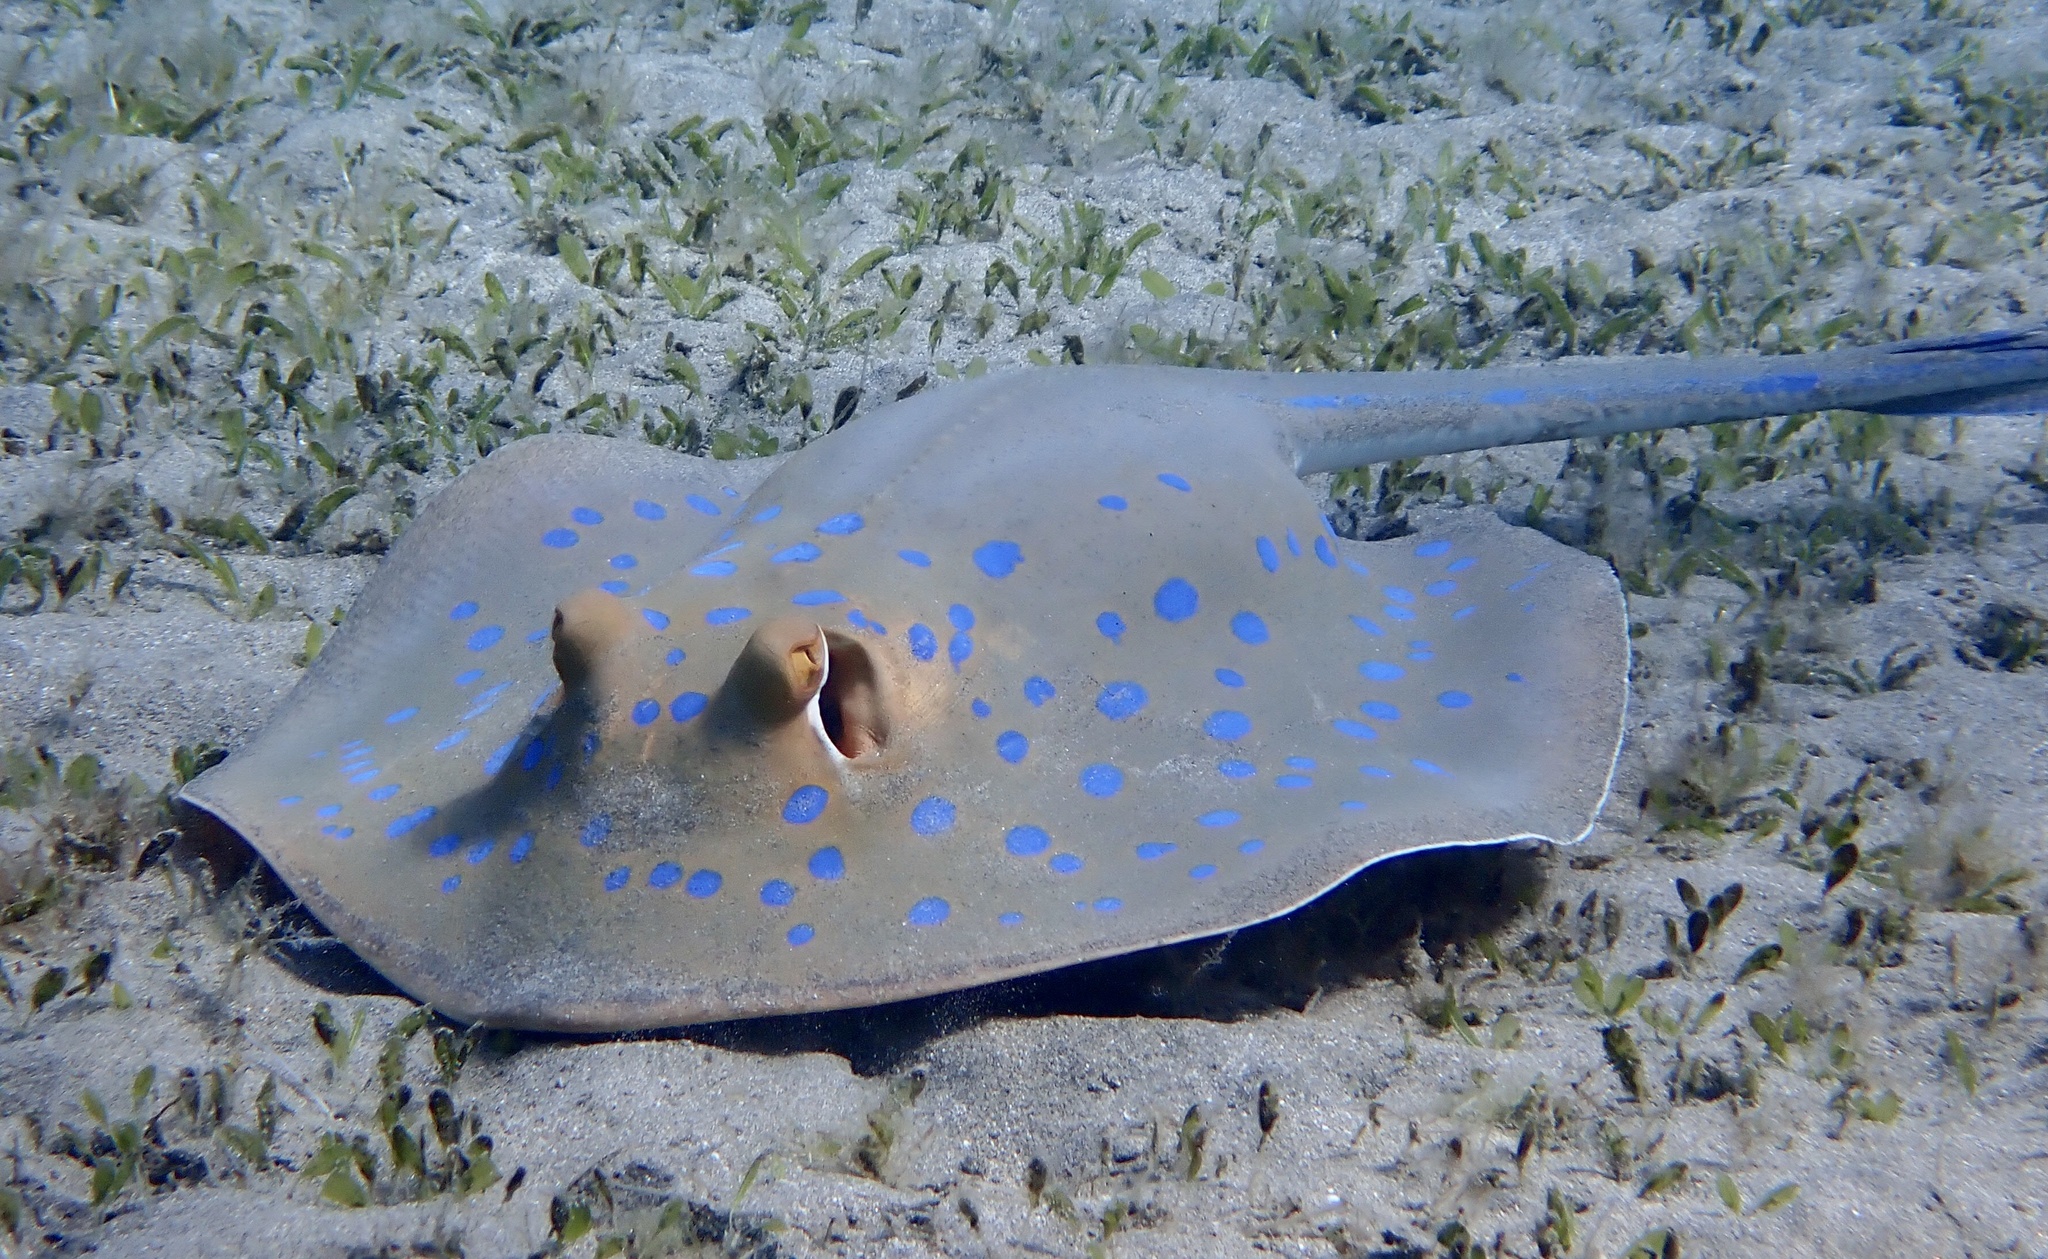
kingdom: Animalia
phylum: Chordata
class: Elasmobranchii
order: Myliobatiformes
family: Dasyatidae
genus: Taeniura
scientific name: Taeniura lymma
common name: Bluespotted ribbontail ray
